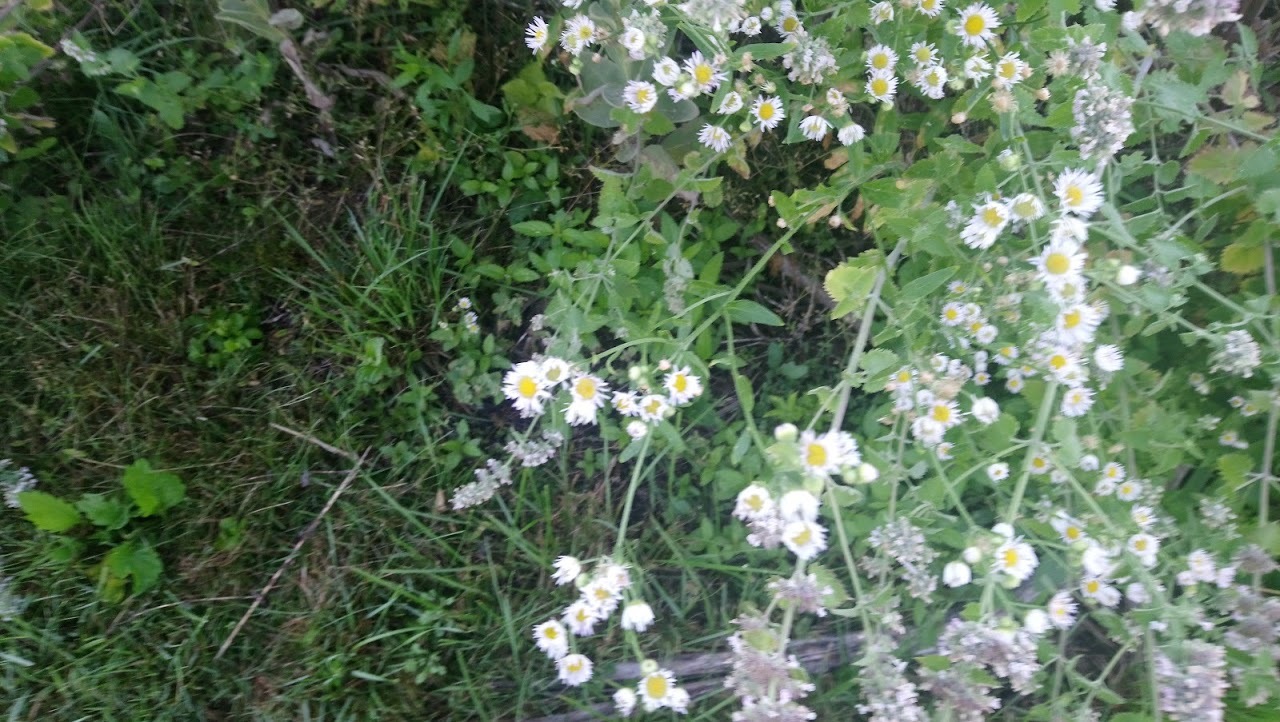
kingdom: Plantae
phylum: Tracheophyta
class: Magnoliopsida
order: Asterales
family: Asteraceae
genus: Erigeron
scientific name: Erigeron strigosus
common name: Common eastern fleabane
